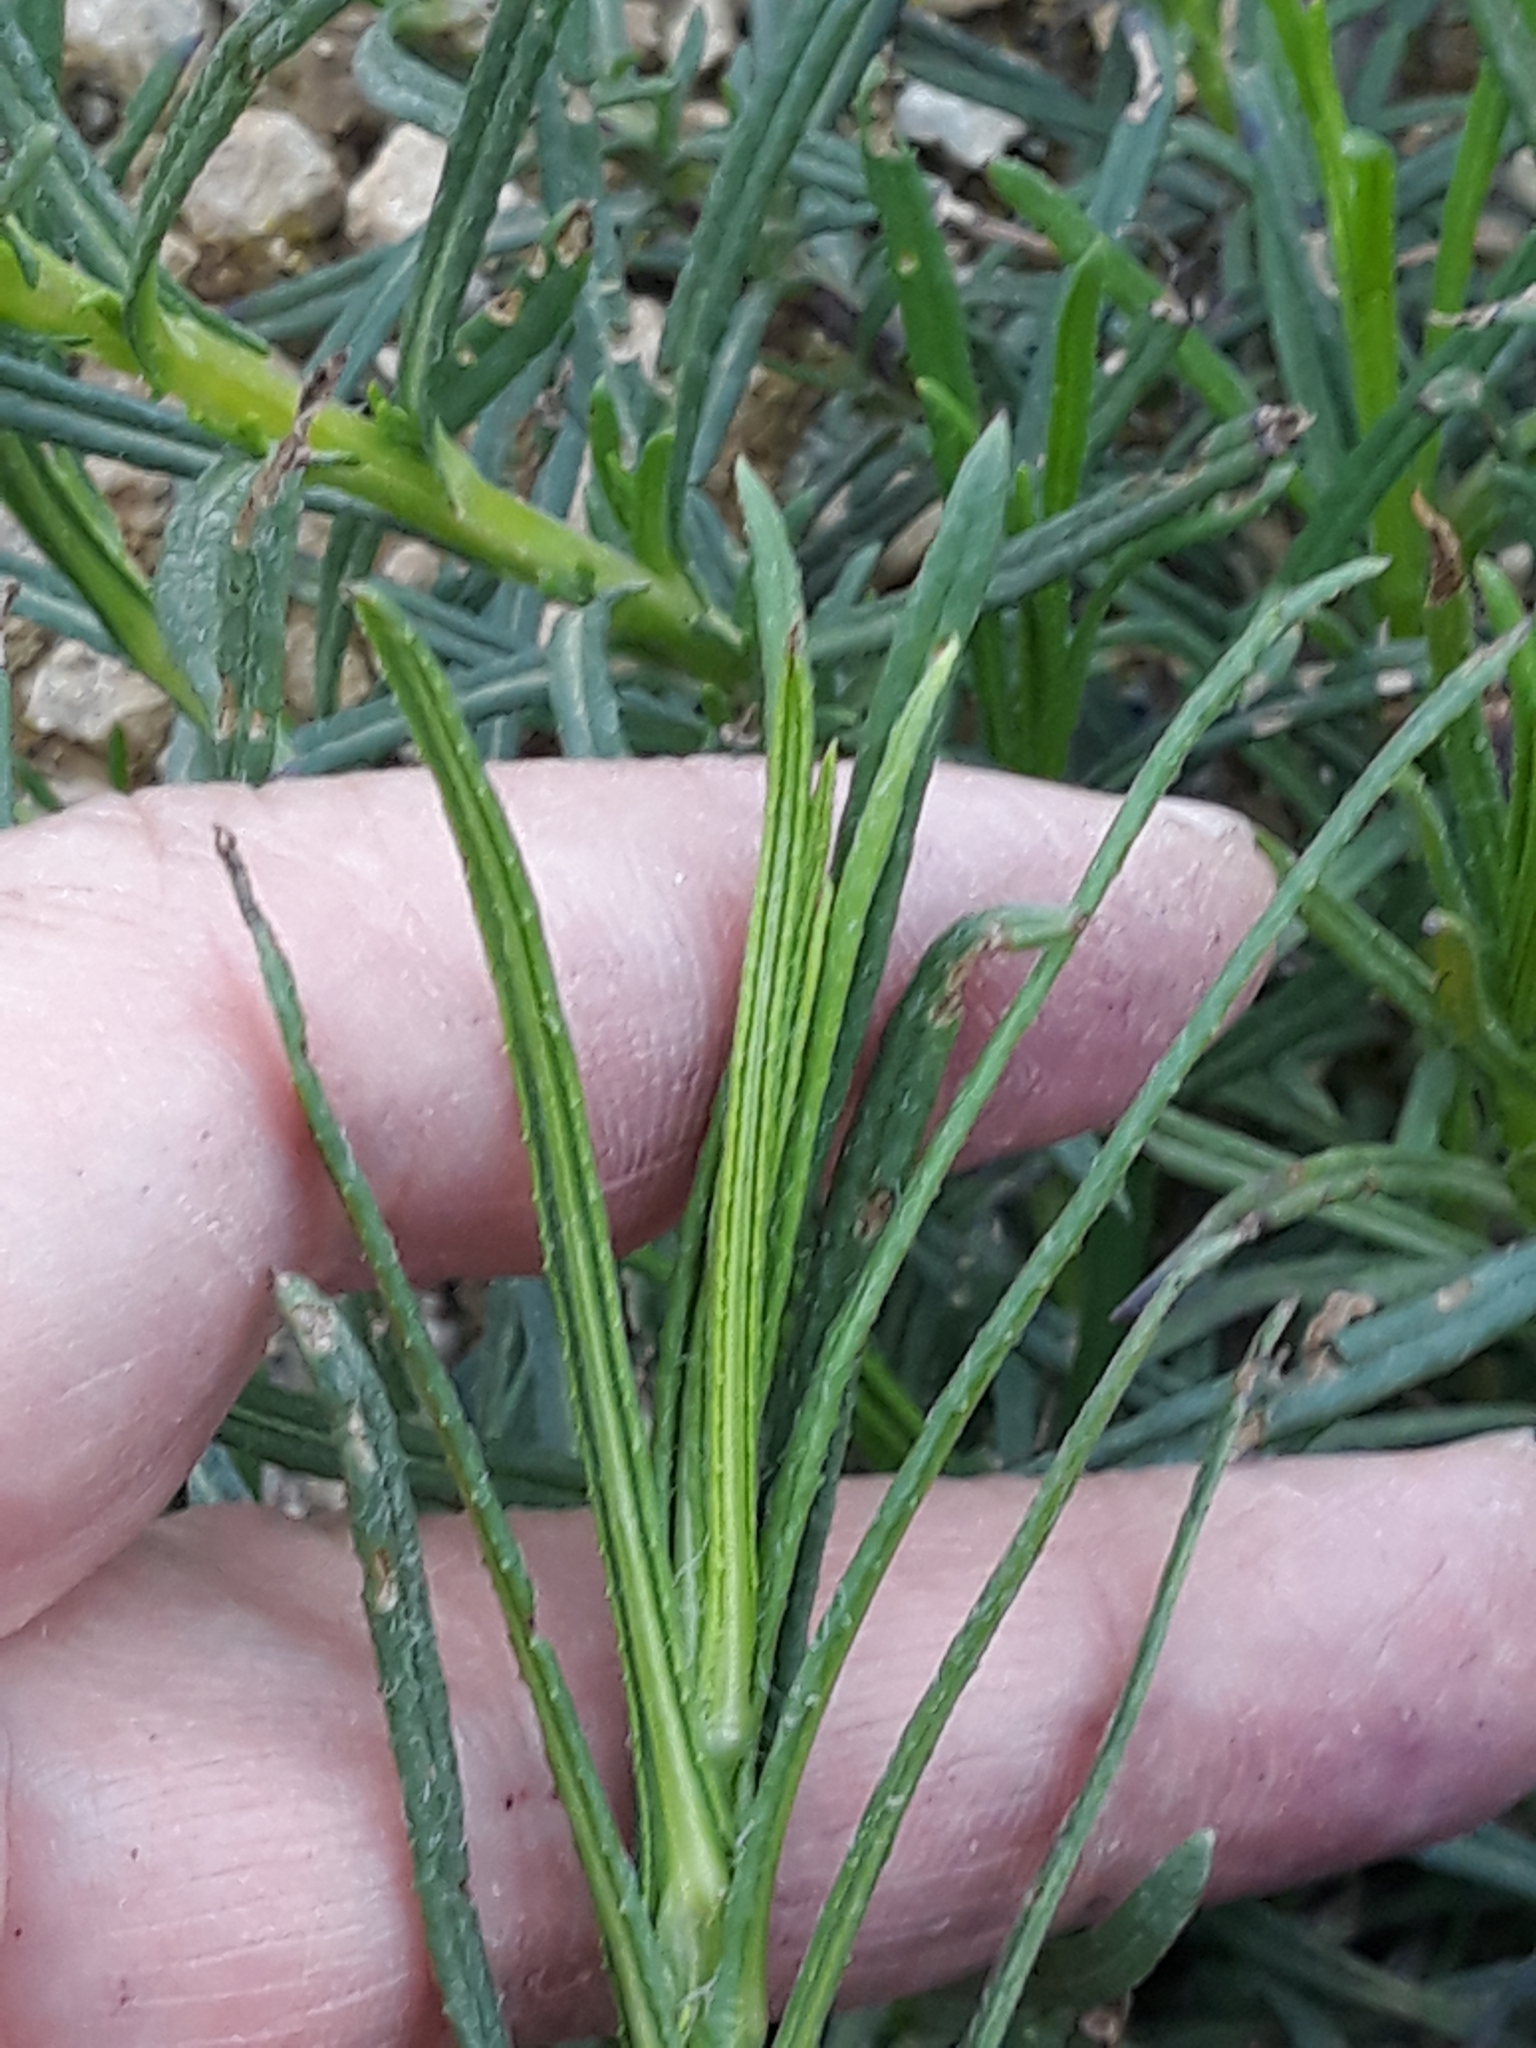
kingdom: Plantae
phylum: Tracheophyta
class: Magnoliopsida
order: Asterales
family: Asteraceae
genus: Senecio
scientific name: Senecio inaequidens
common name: Narrow-leaved ragwort
